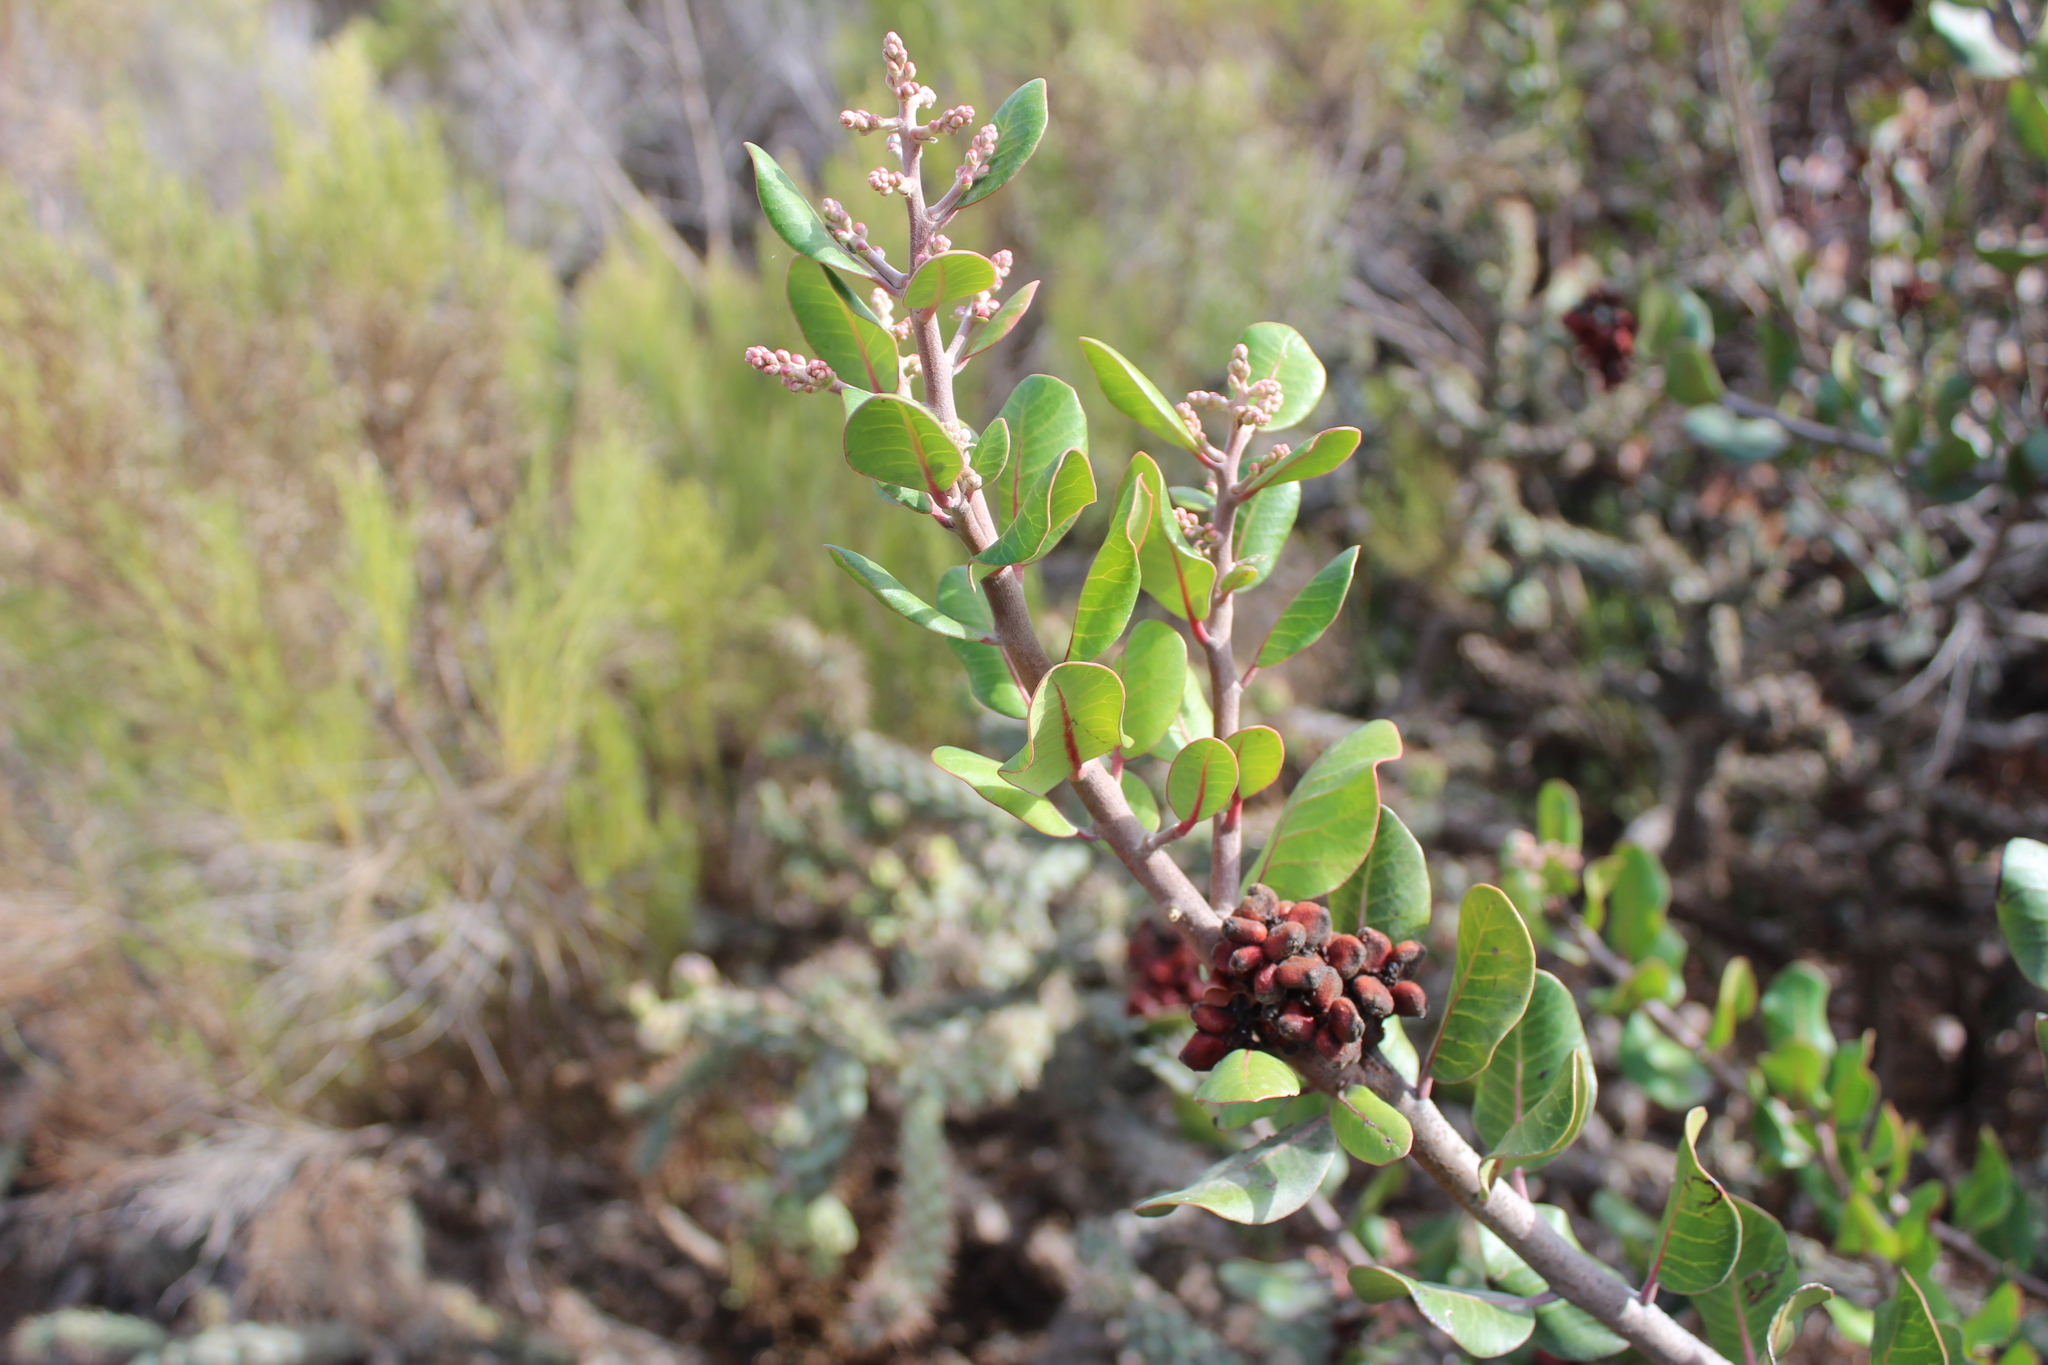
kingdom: Plantae
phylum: Tracheophyta
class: Magnoliopsida
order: Sapindales
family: Anacardiaceae
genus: Rhus
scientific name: Rhus integrifolia
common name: Lemonade sumac
